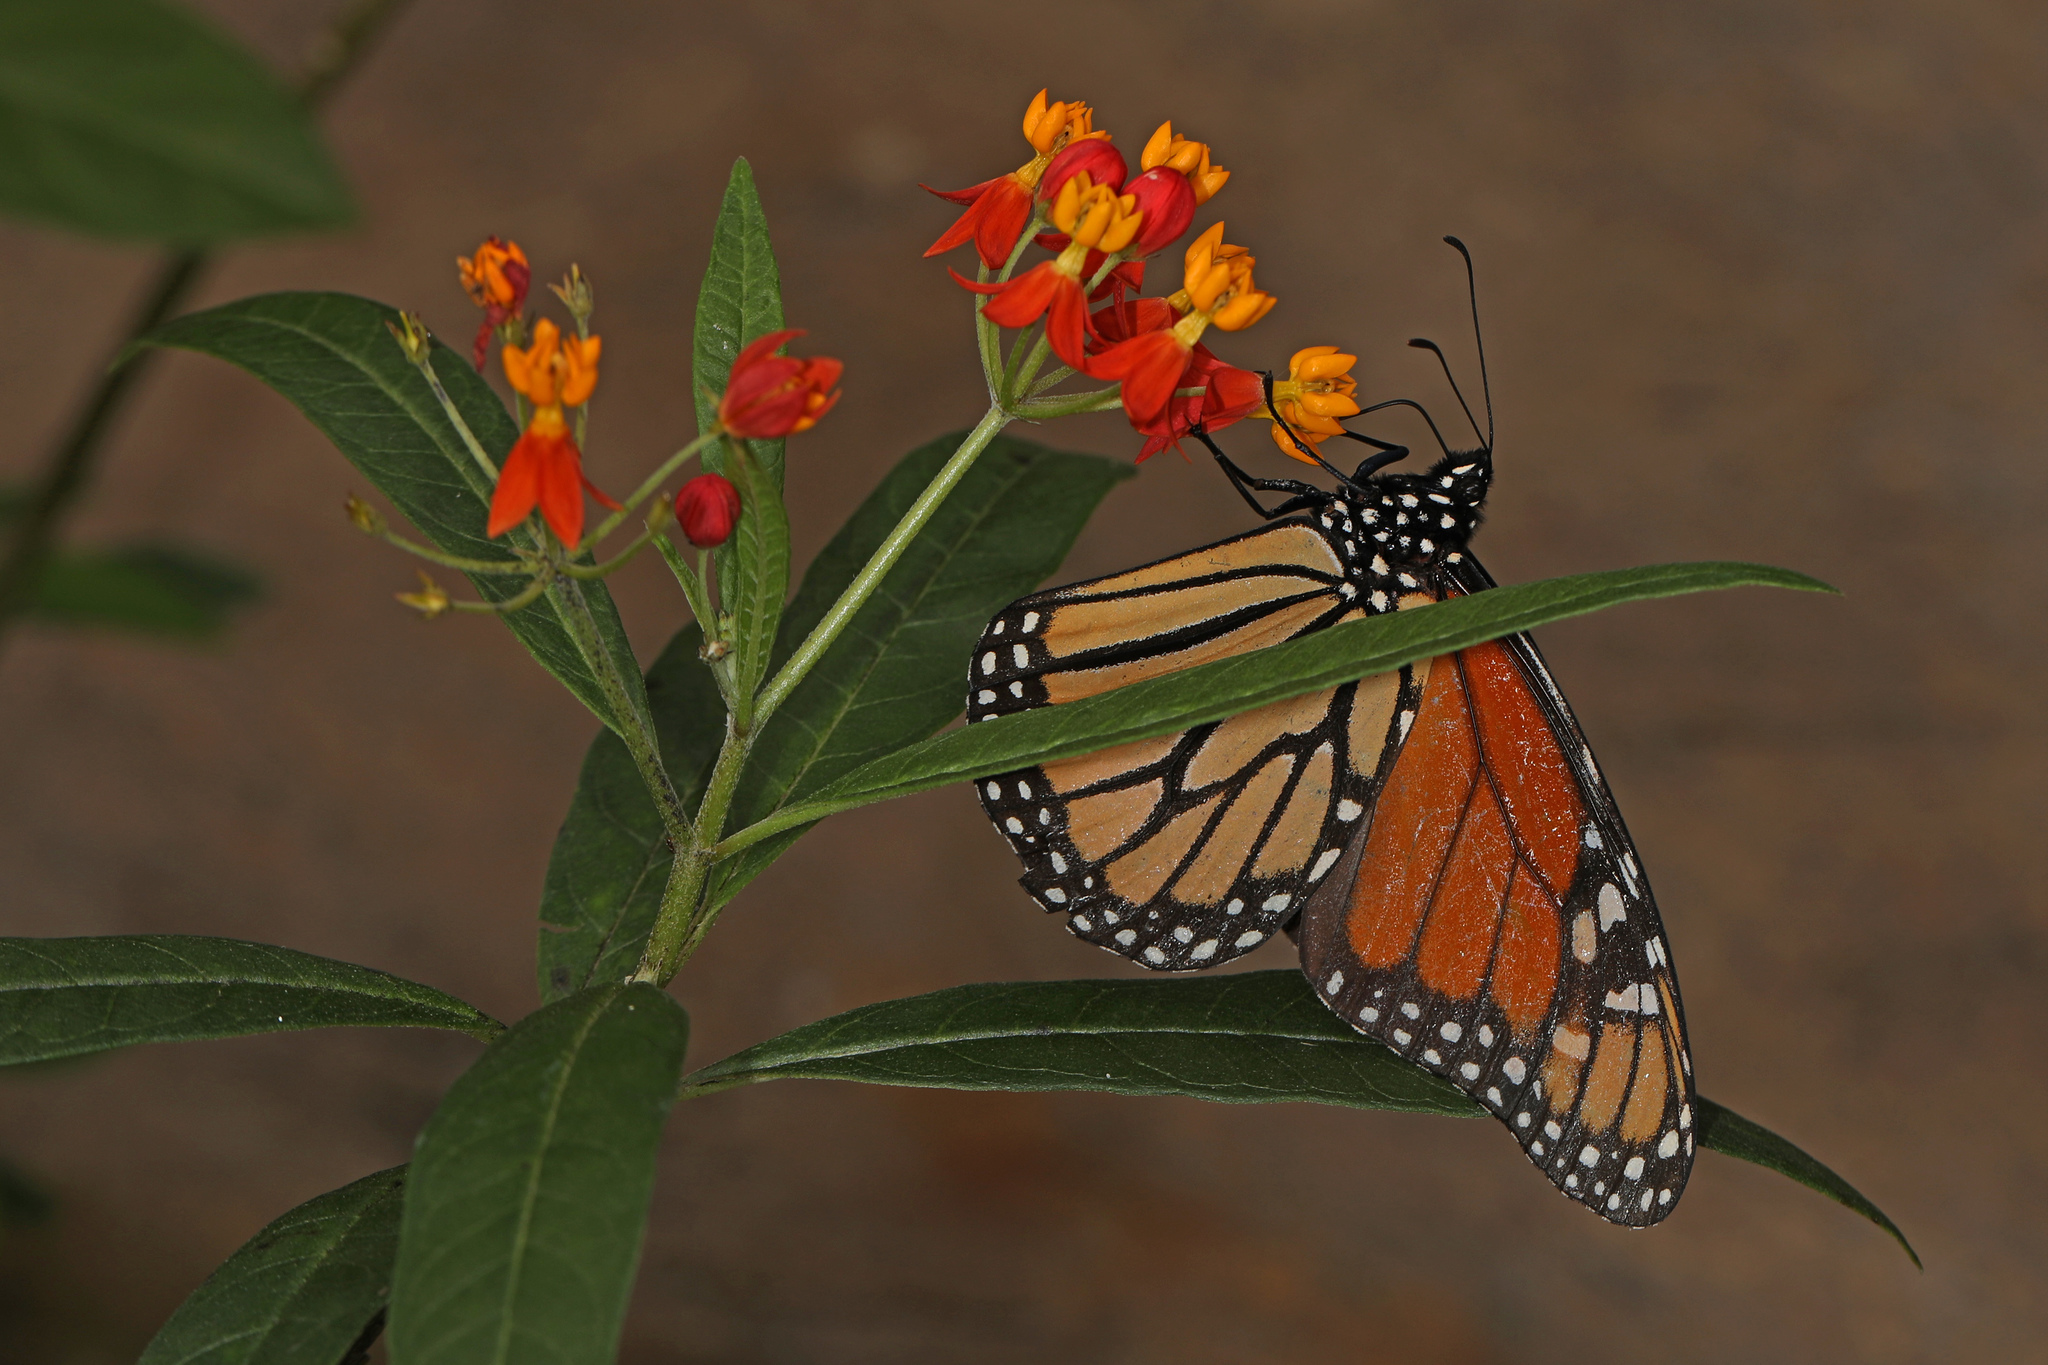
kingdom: Animalia
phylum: Arthropoda
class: Insecta
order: Lepidoptera
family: Nymphalidae
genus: Danaus
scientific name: Danaus plexippus
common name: Monarch
